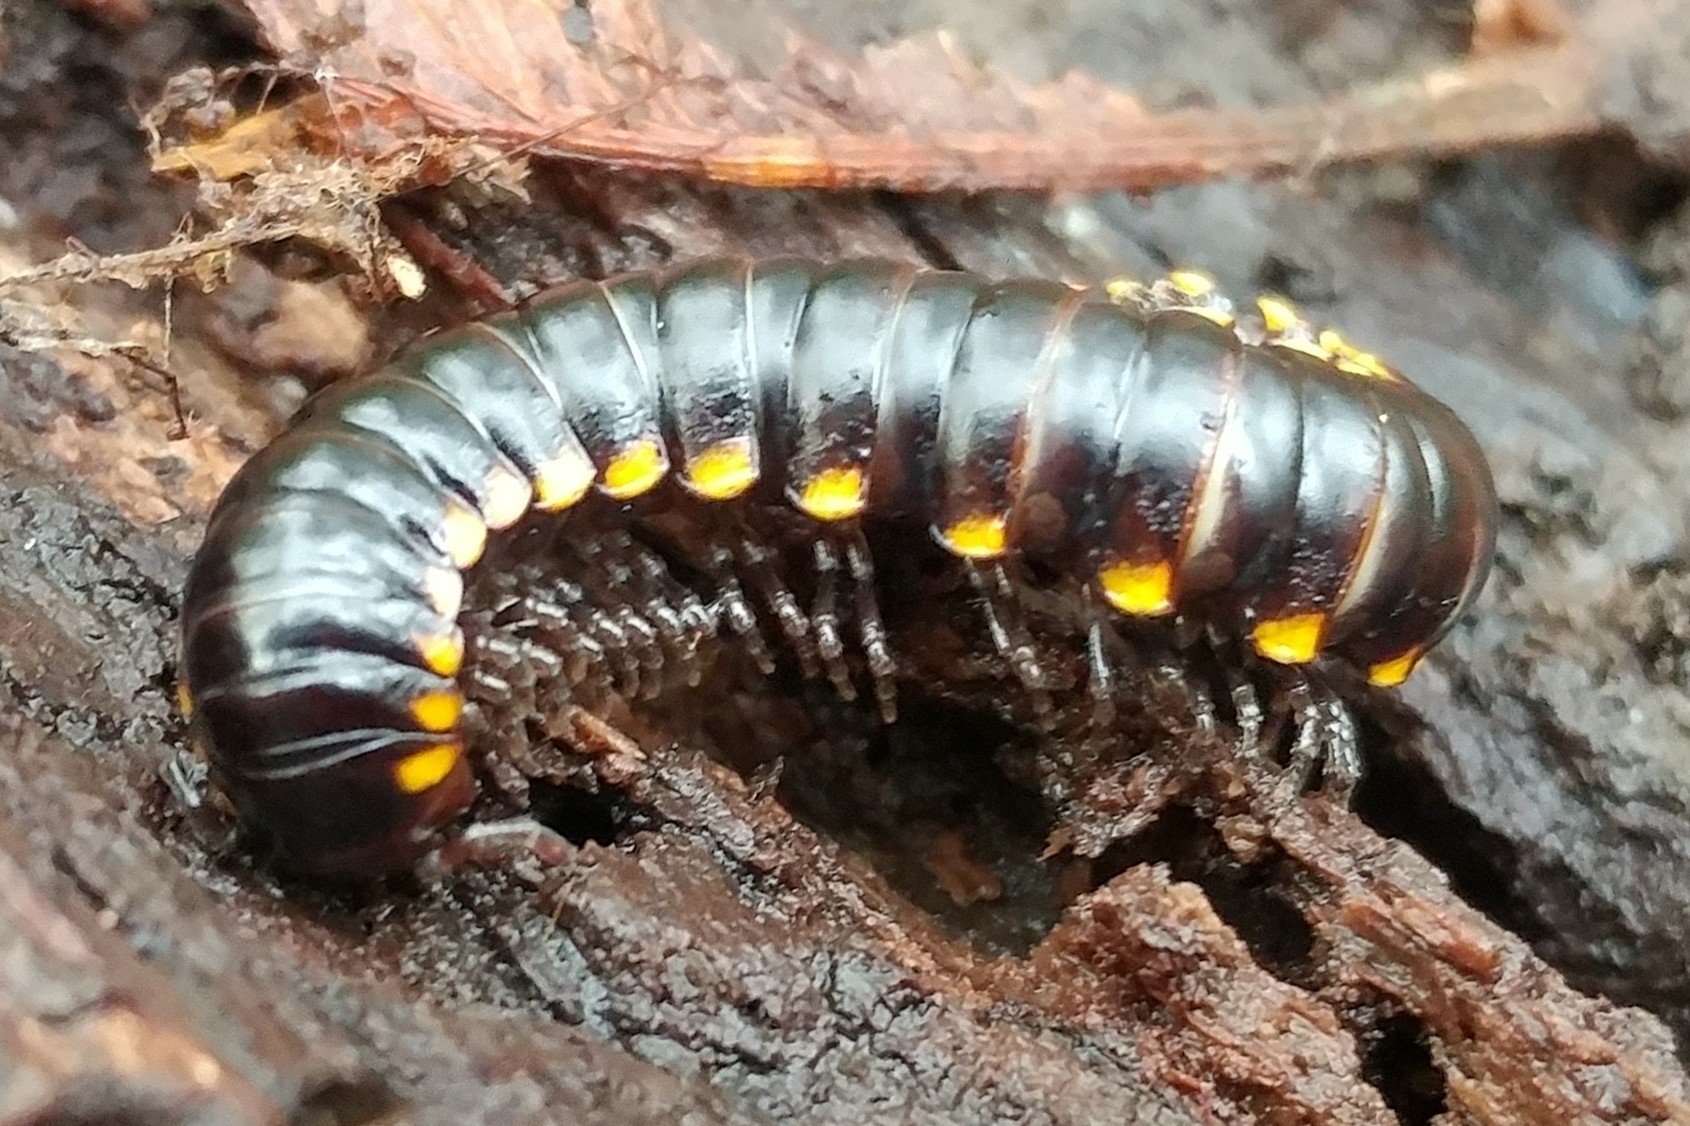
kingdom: Animalia
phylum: Arthropoda
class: Diplopoda
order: Polydesmida
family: Xystodesmidae
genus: Harpaphe
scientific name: Harpaphe haydeniana
